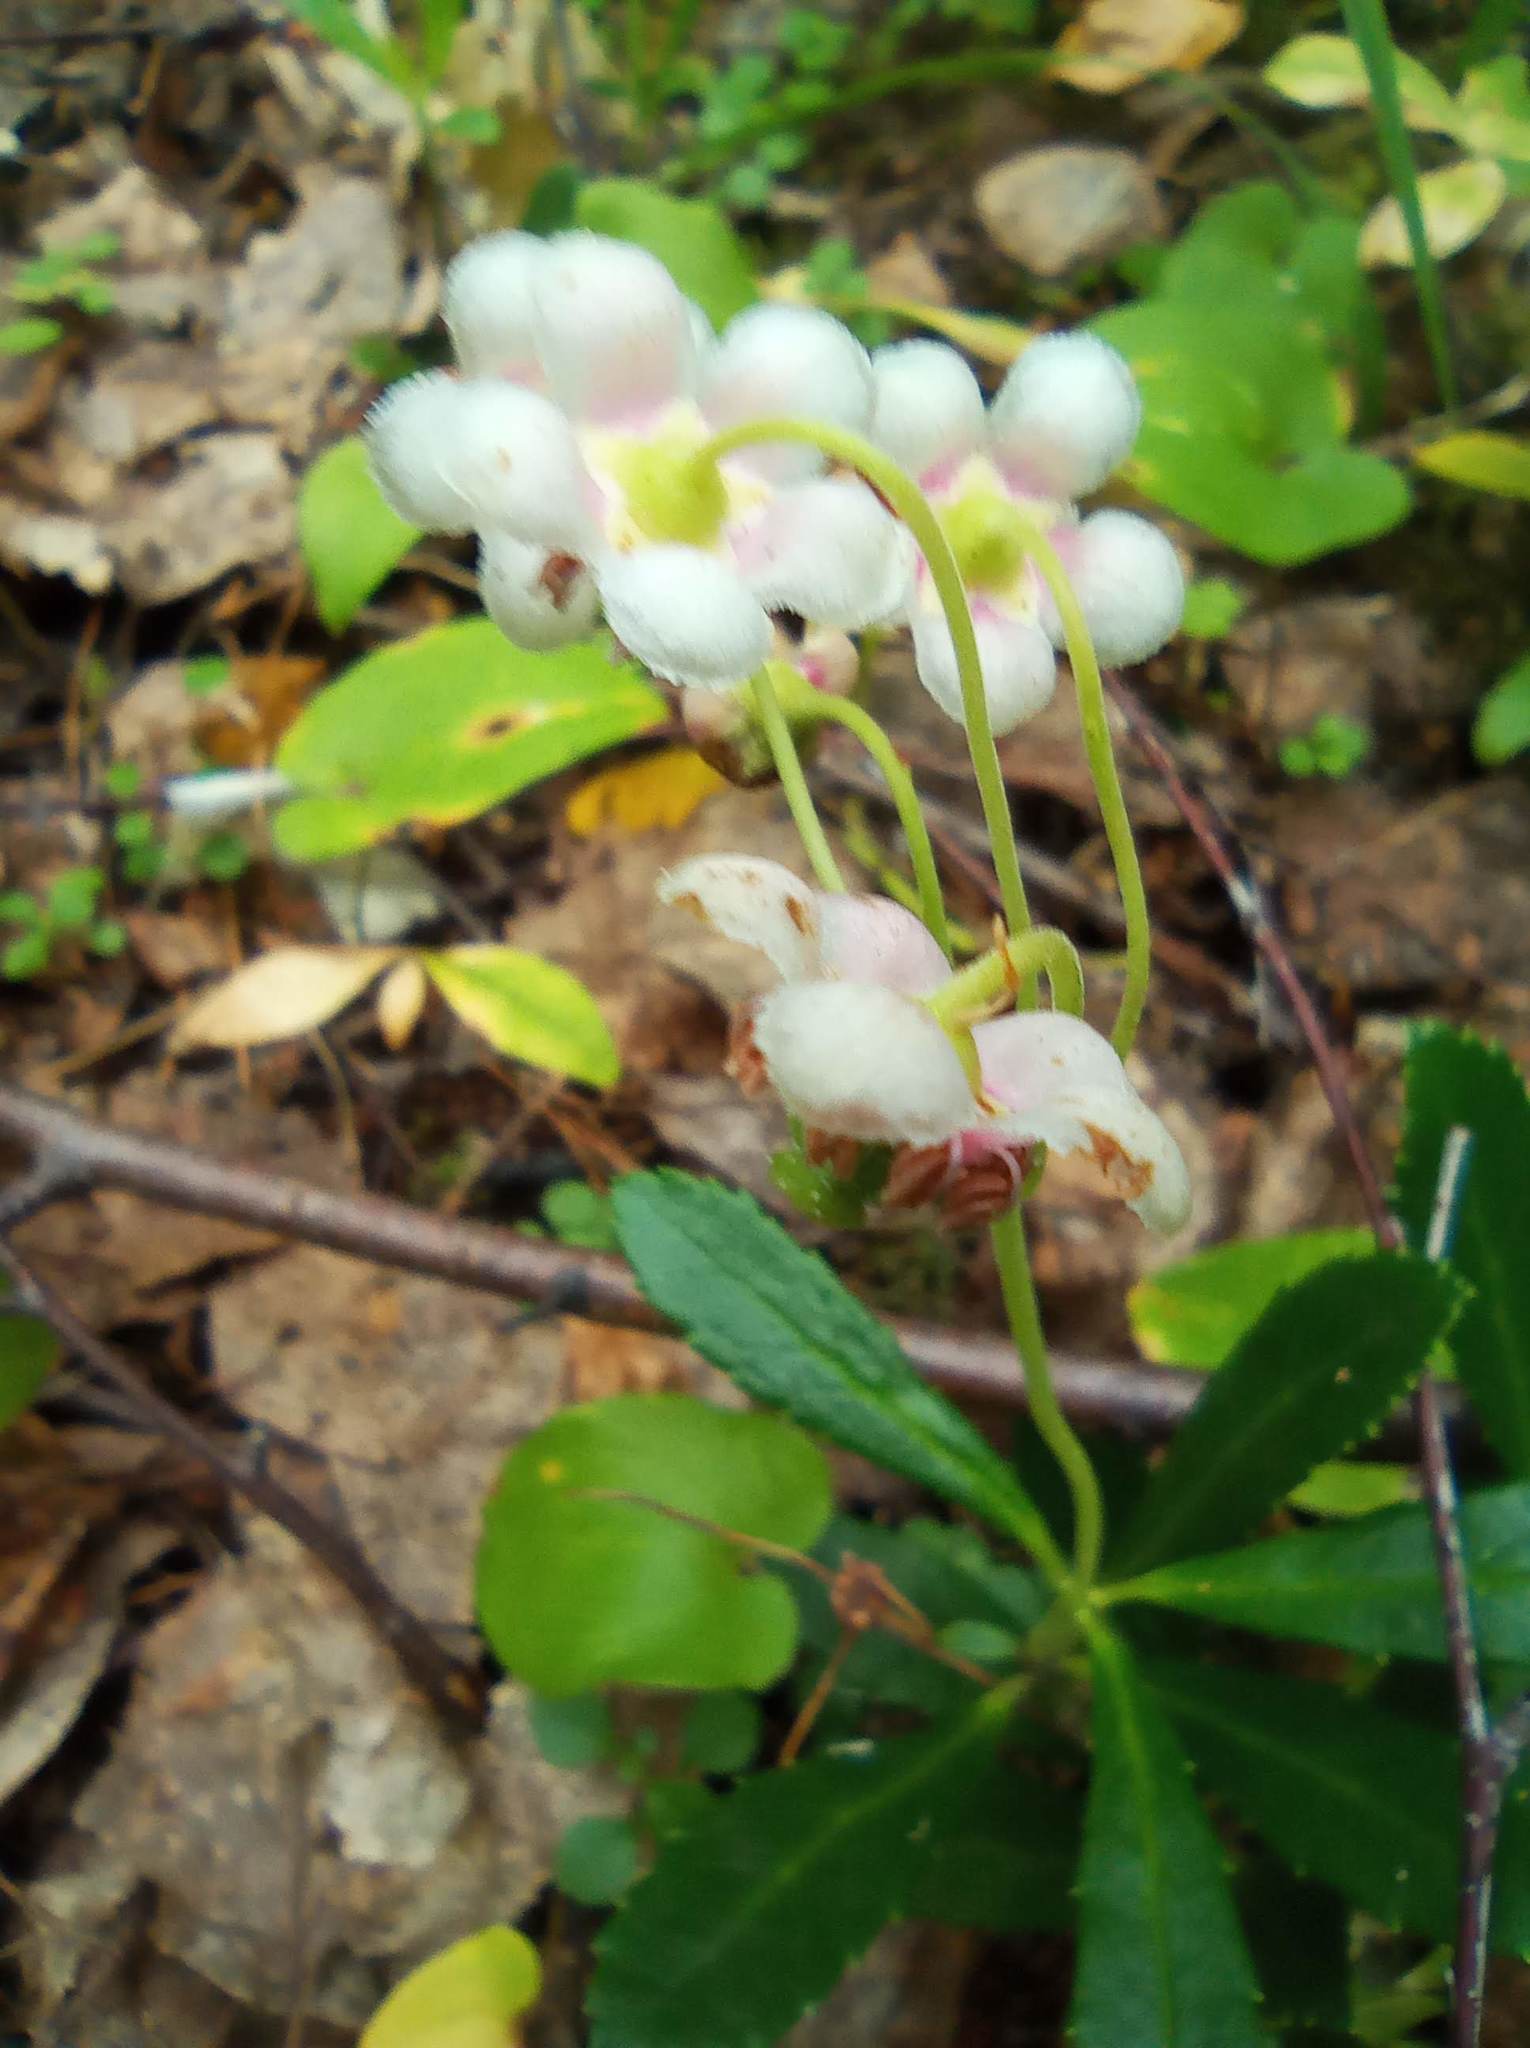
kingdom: Plantae
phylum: Tracheophyta
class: Magnoliopsida
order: Ericales
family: Ericaceae
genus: Chimaphila
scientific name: Chimaphila umbellata
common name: Pipsissewa
